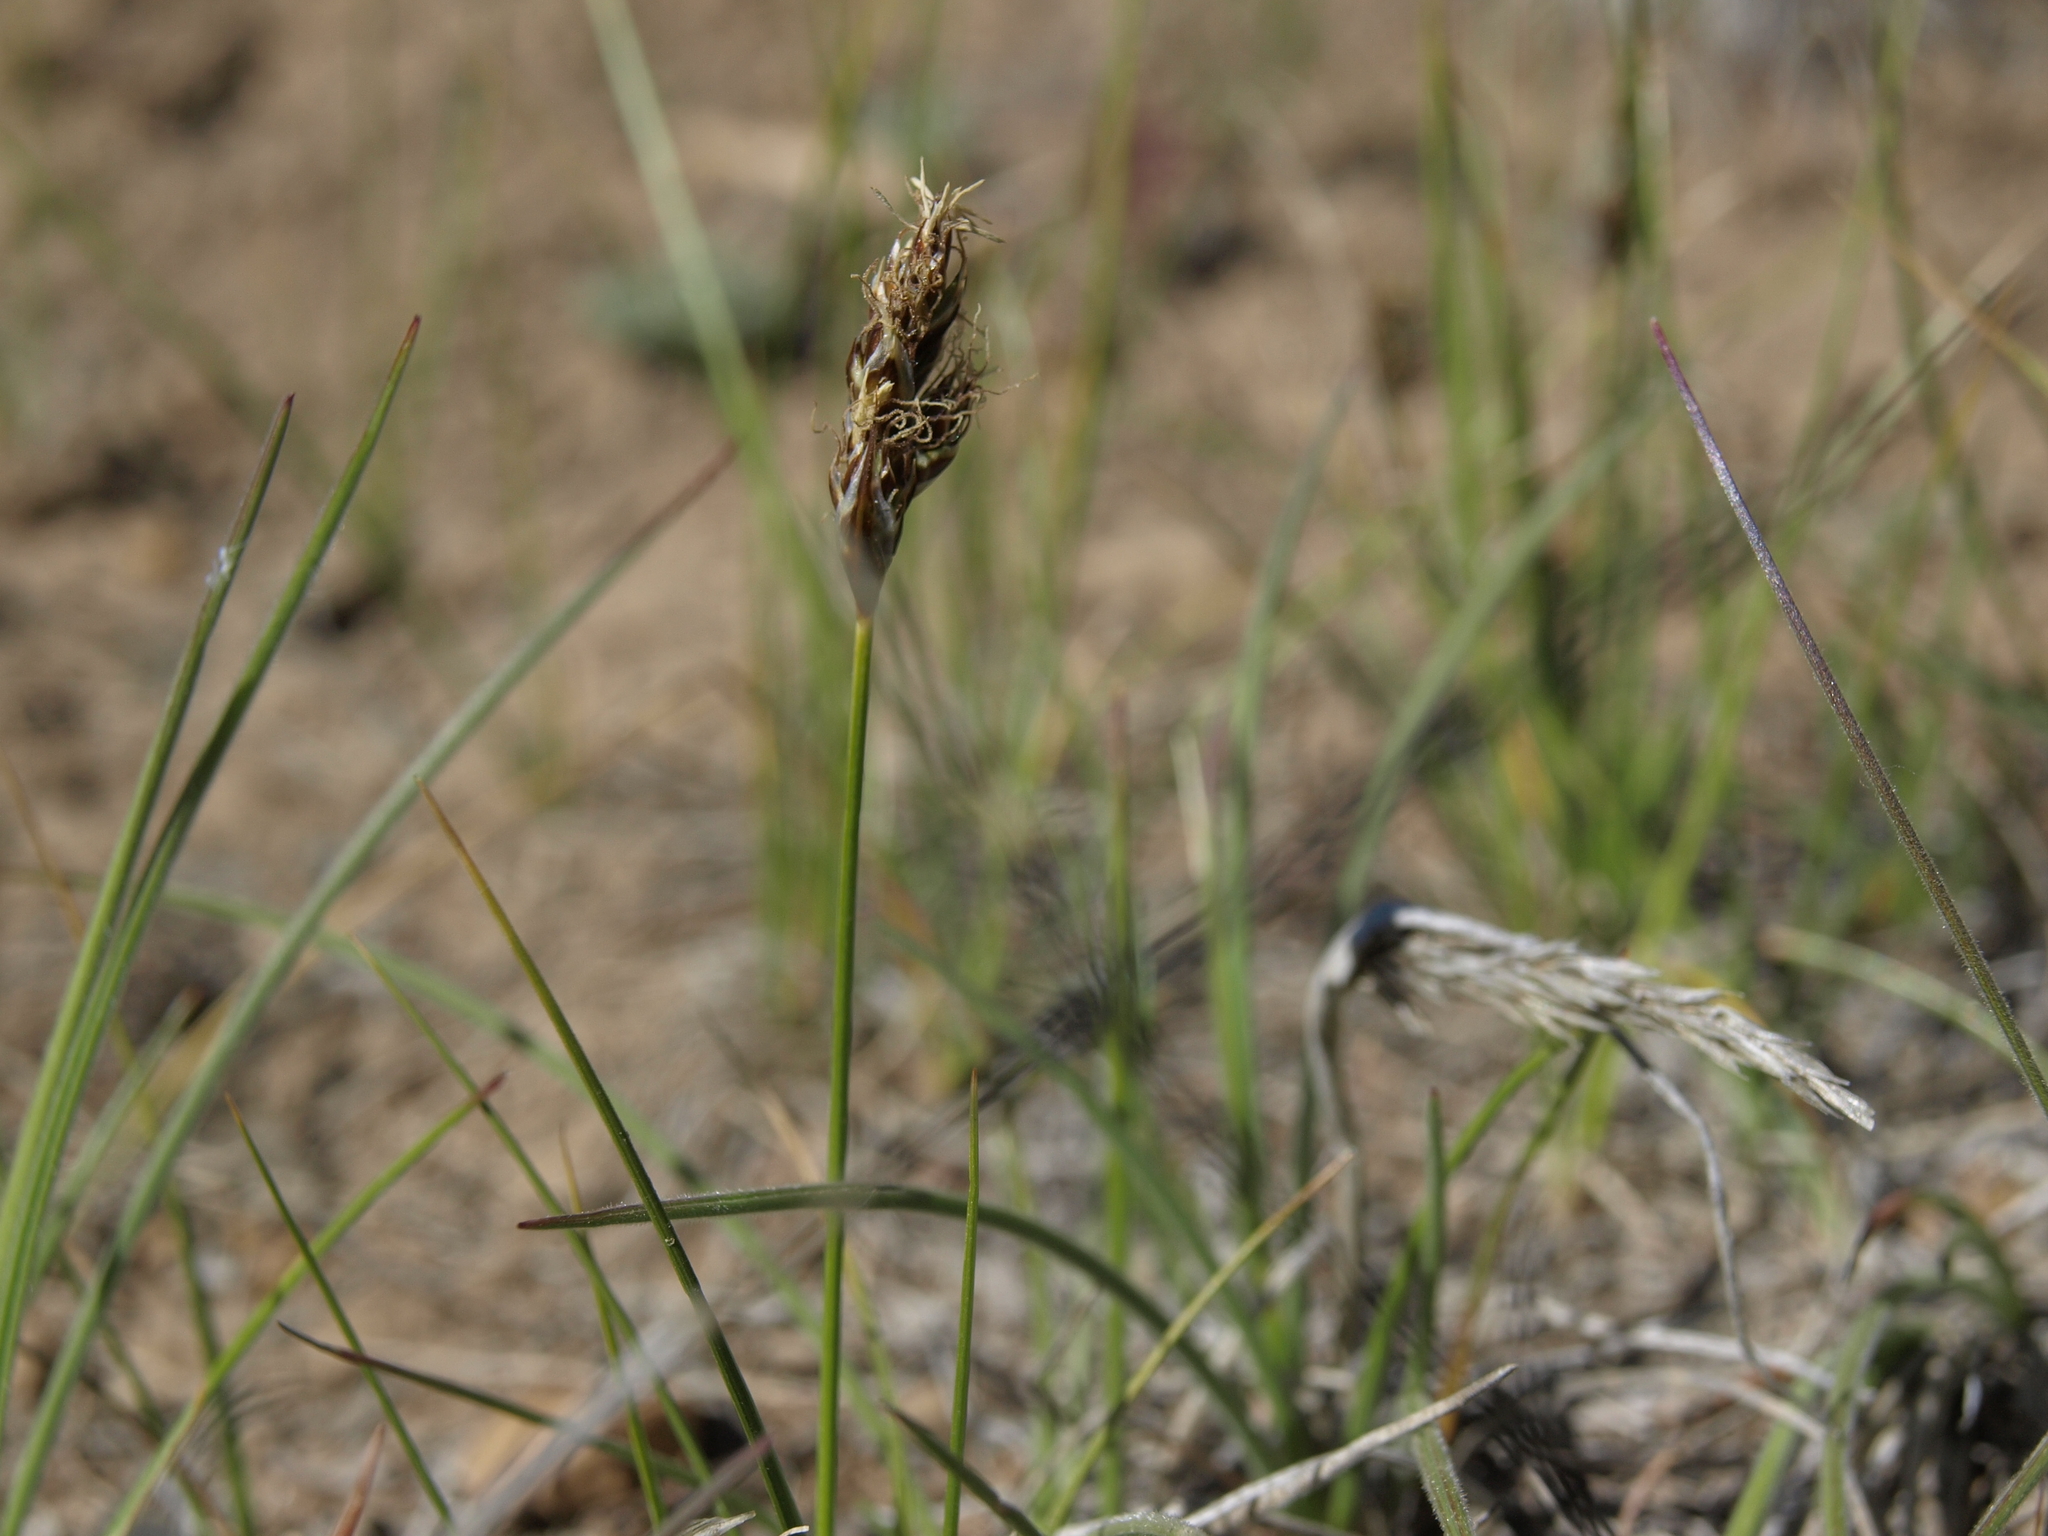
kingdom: Plantae
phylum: Tracheophyta
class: Liliopsida
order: Poales
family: Cyperaceae
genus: Carex
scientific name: Carex duriuscula
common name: Involute-leaved sedge
